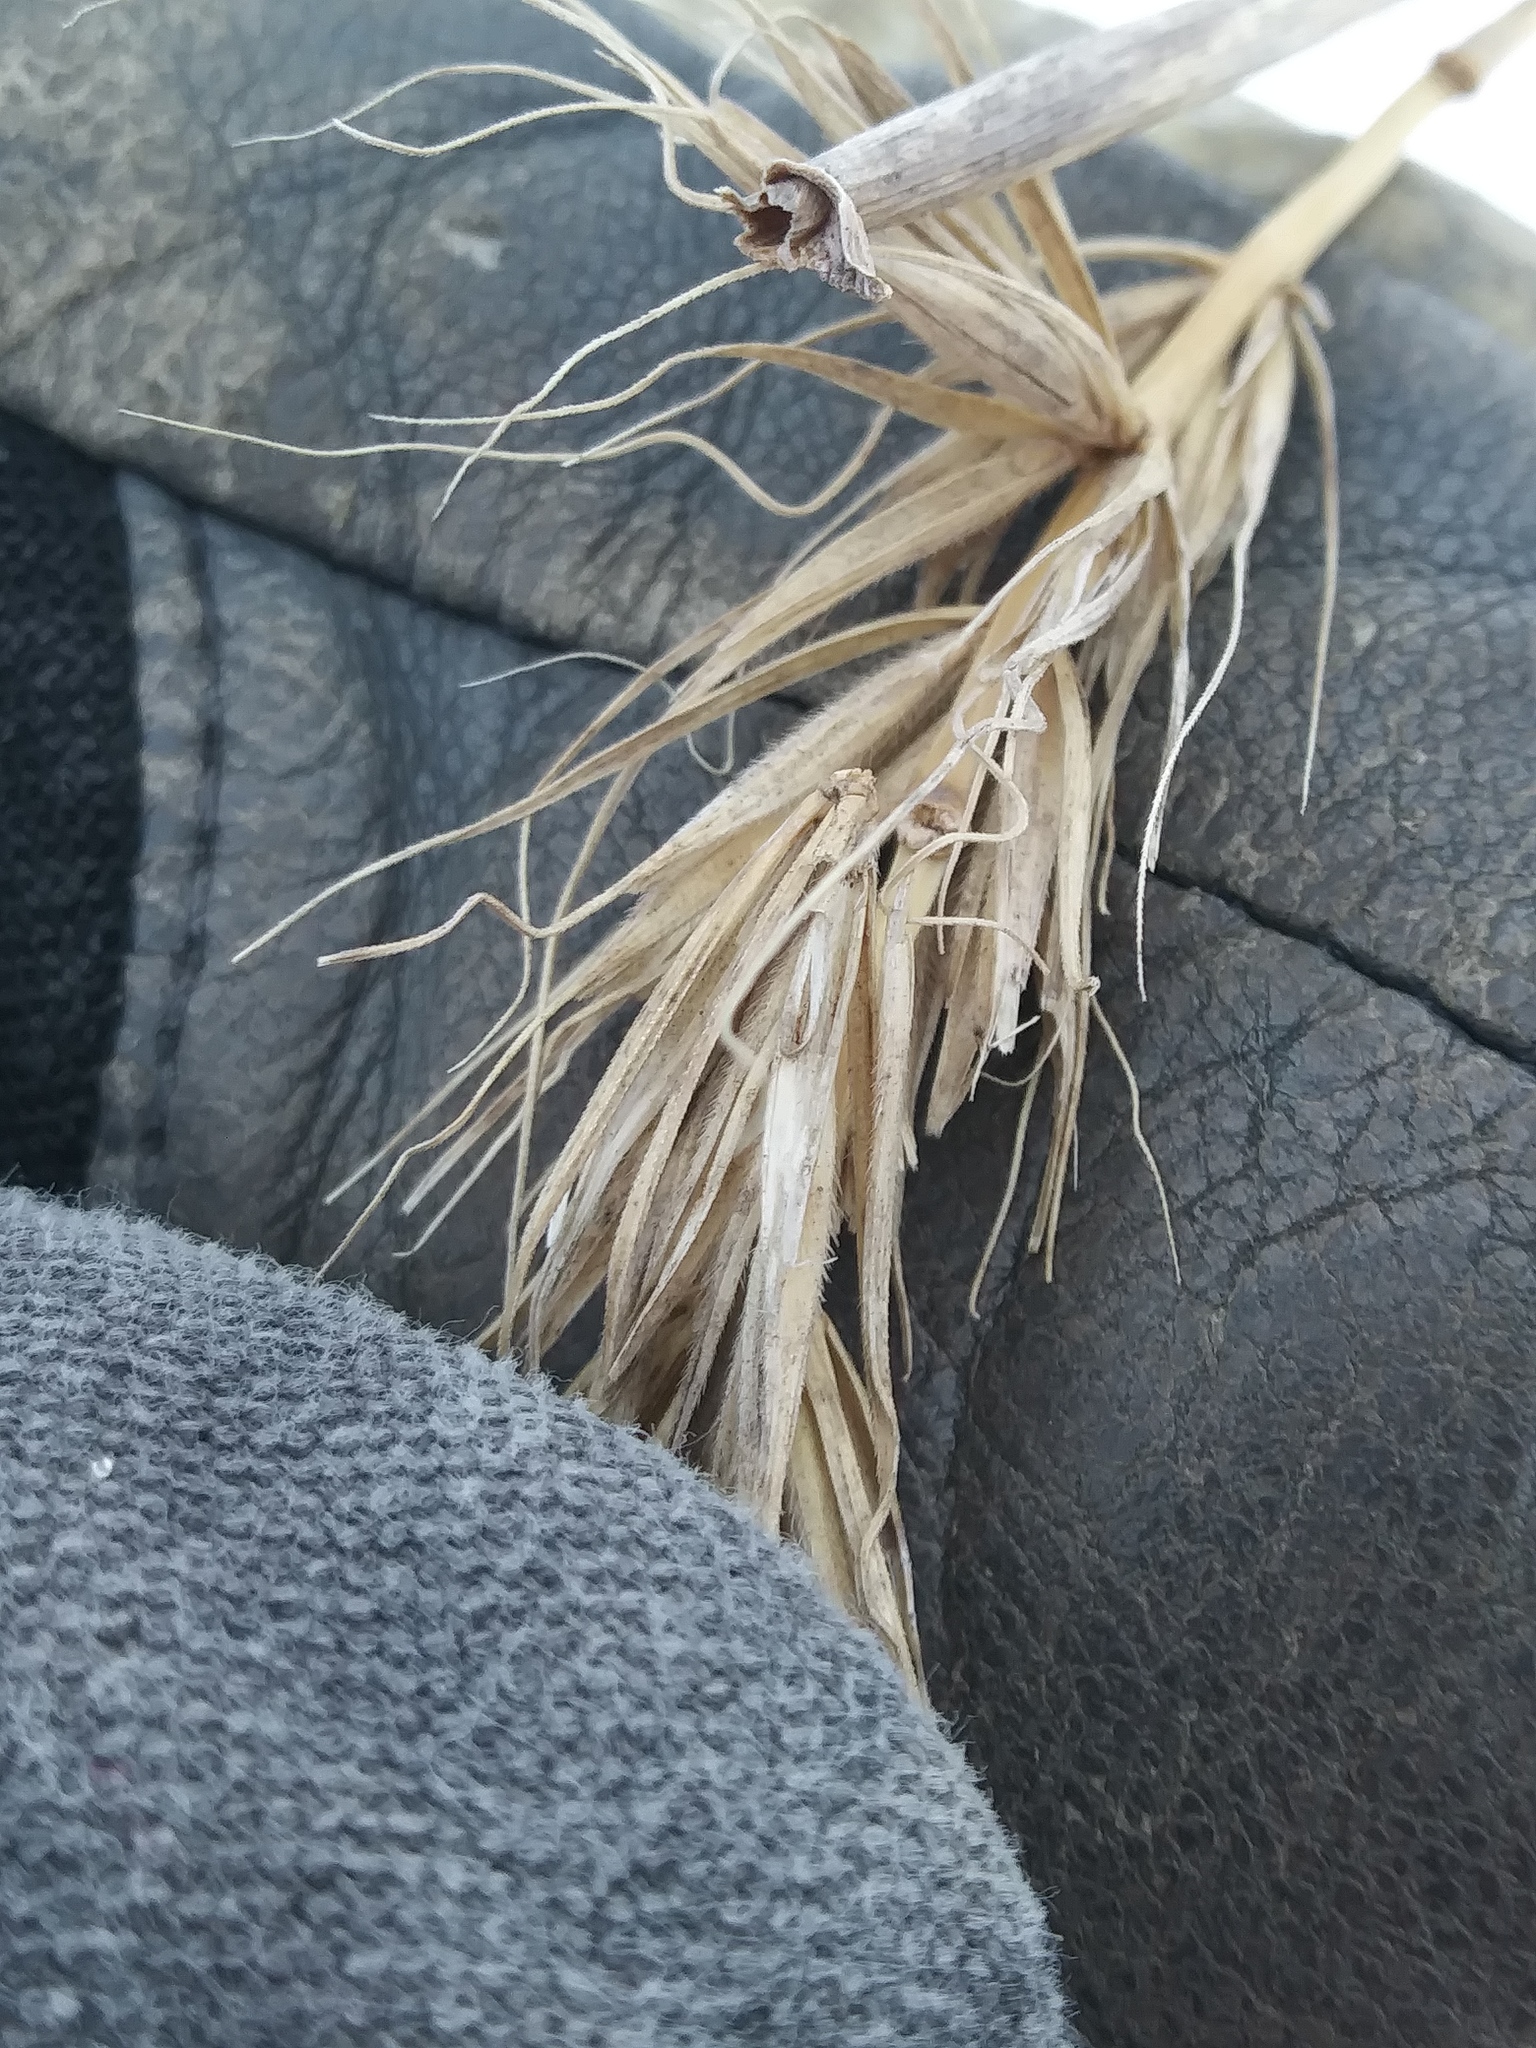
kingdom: Plantae
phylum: Tracheophyta
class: Liliopsida
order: Poales
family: Poaceae
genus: Elymus
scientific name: Elymus canadensis
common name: Canada wild rye
